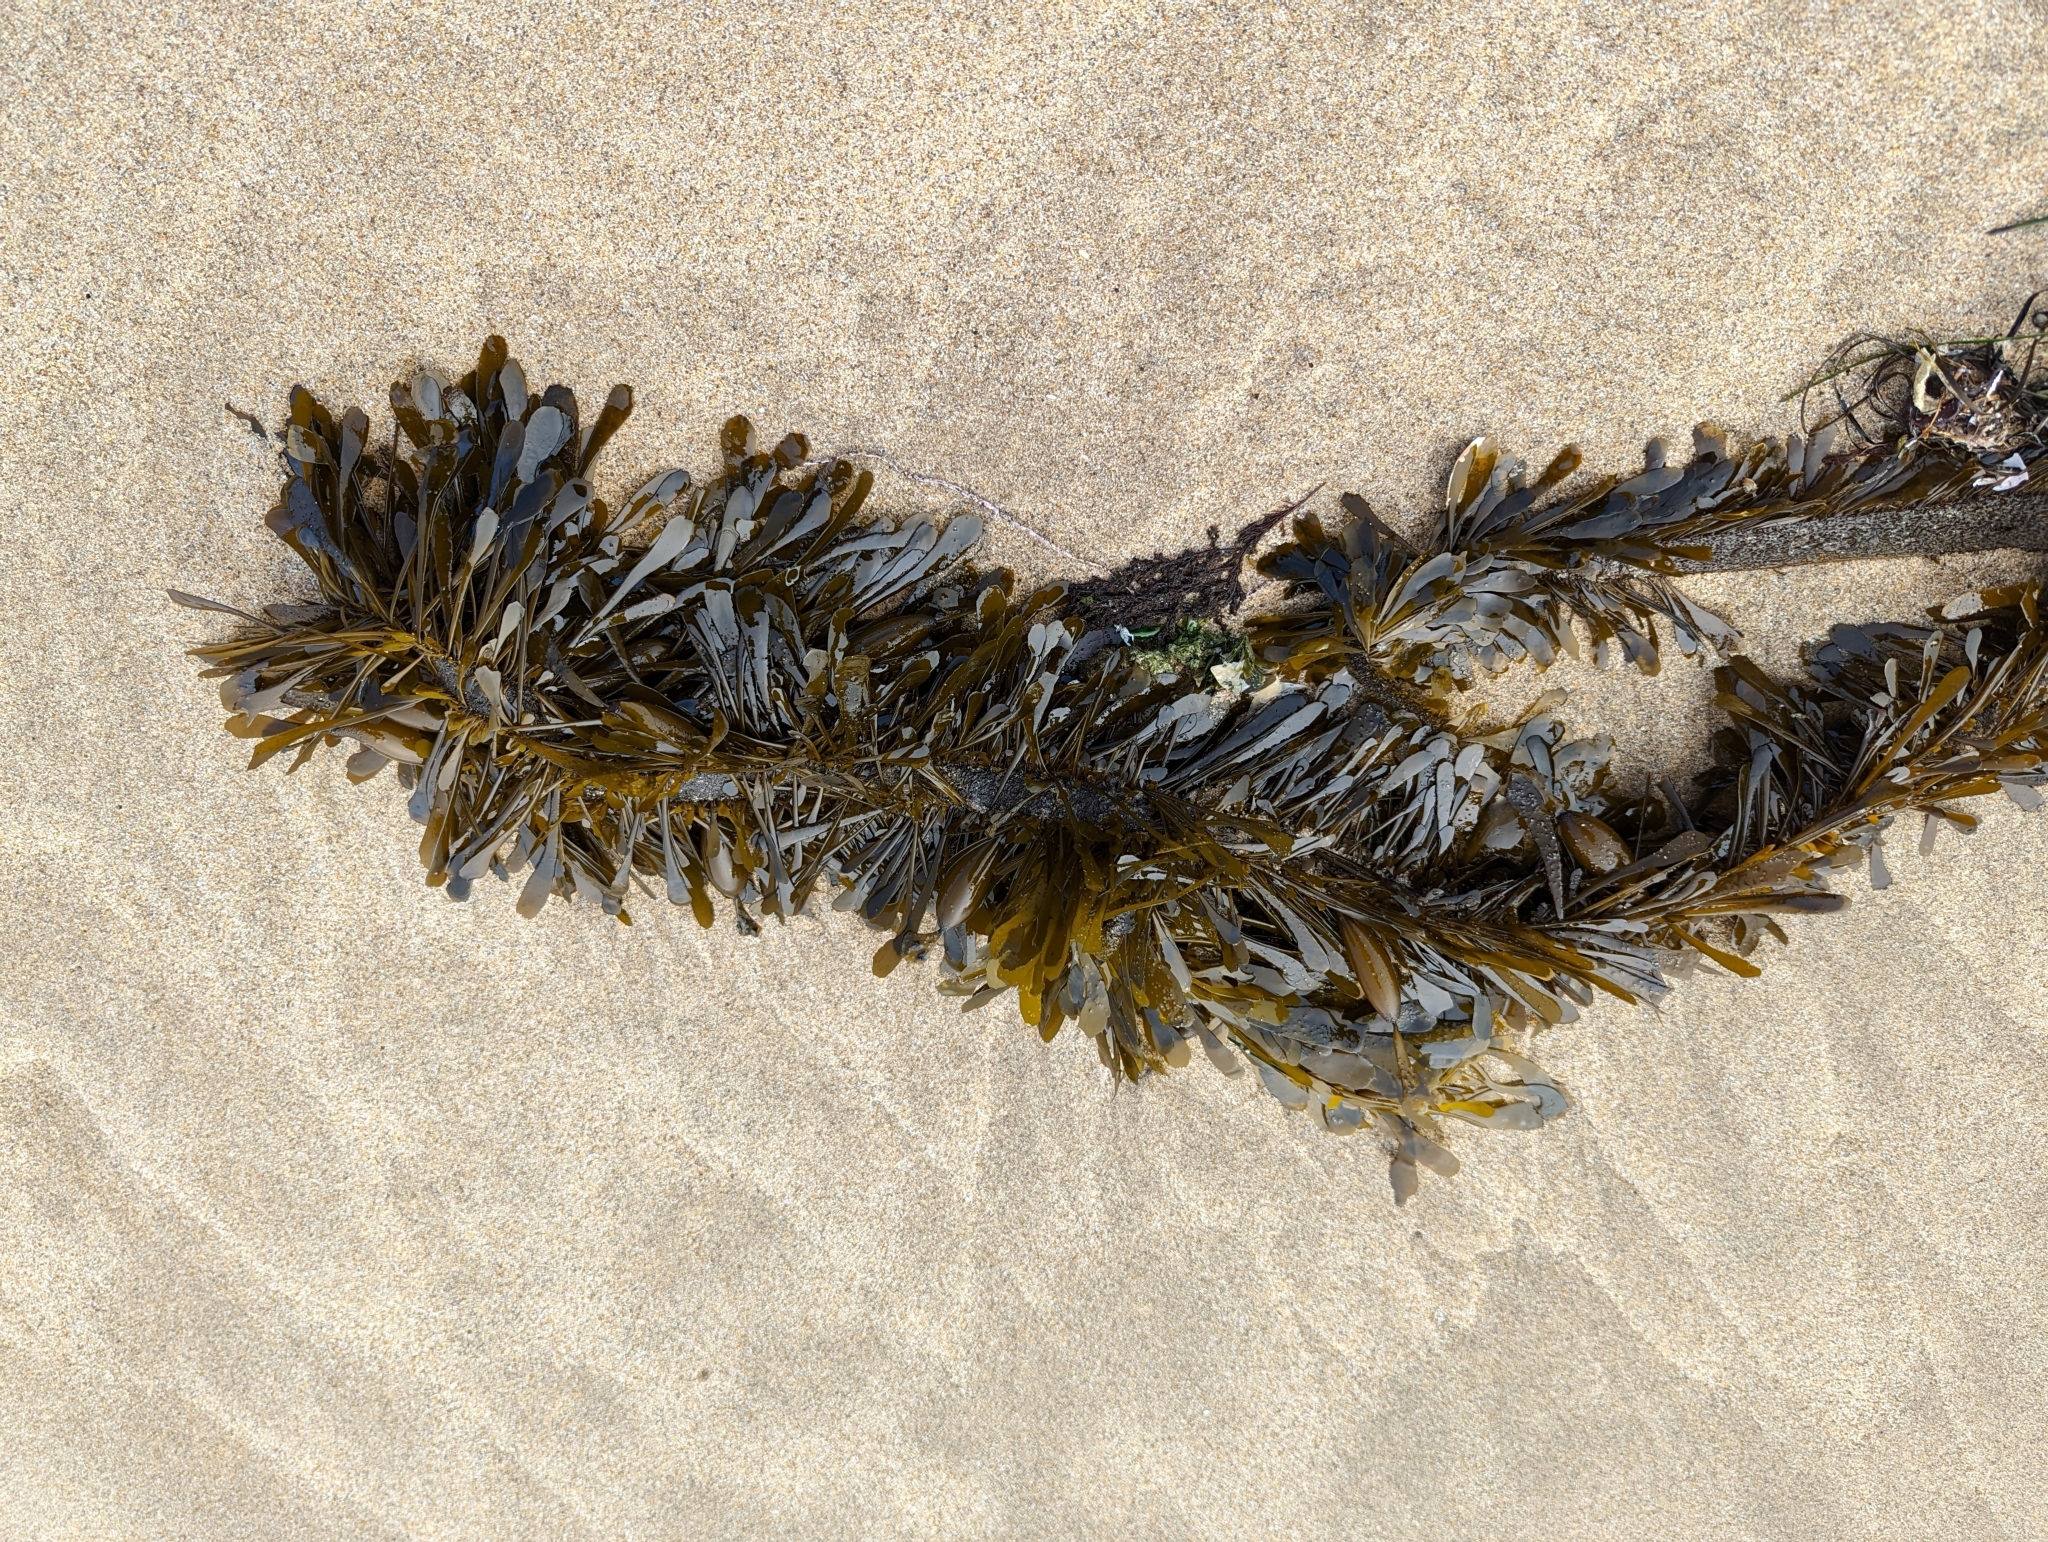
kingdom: Chromista
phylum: Ochrophyta
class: Phaeophyceae
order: Laminariales
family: Lessoniaceae
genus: Egregia
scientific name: Egregia menziesii
